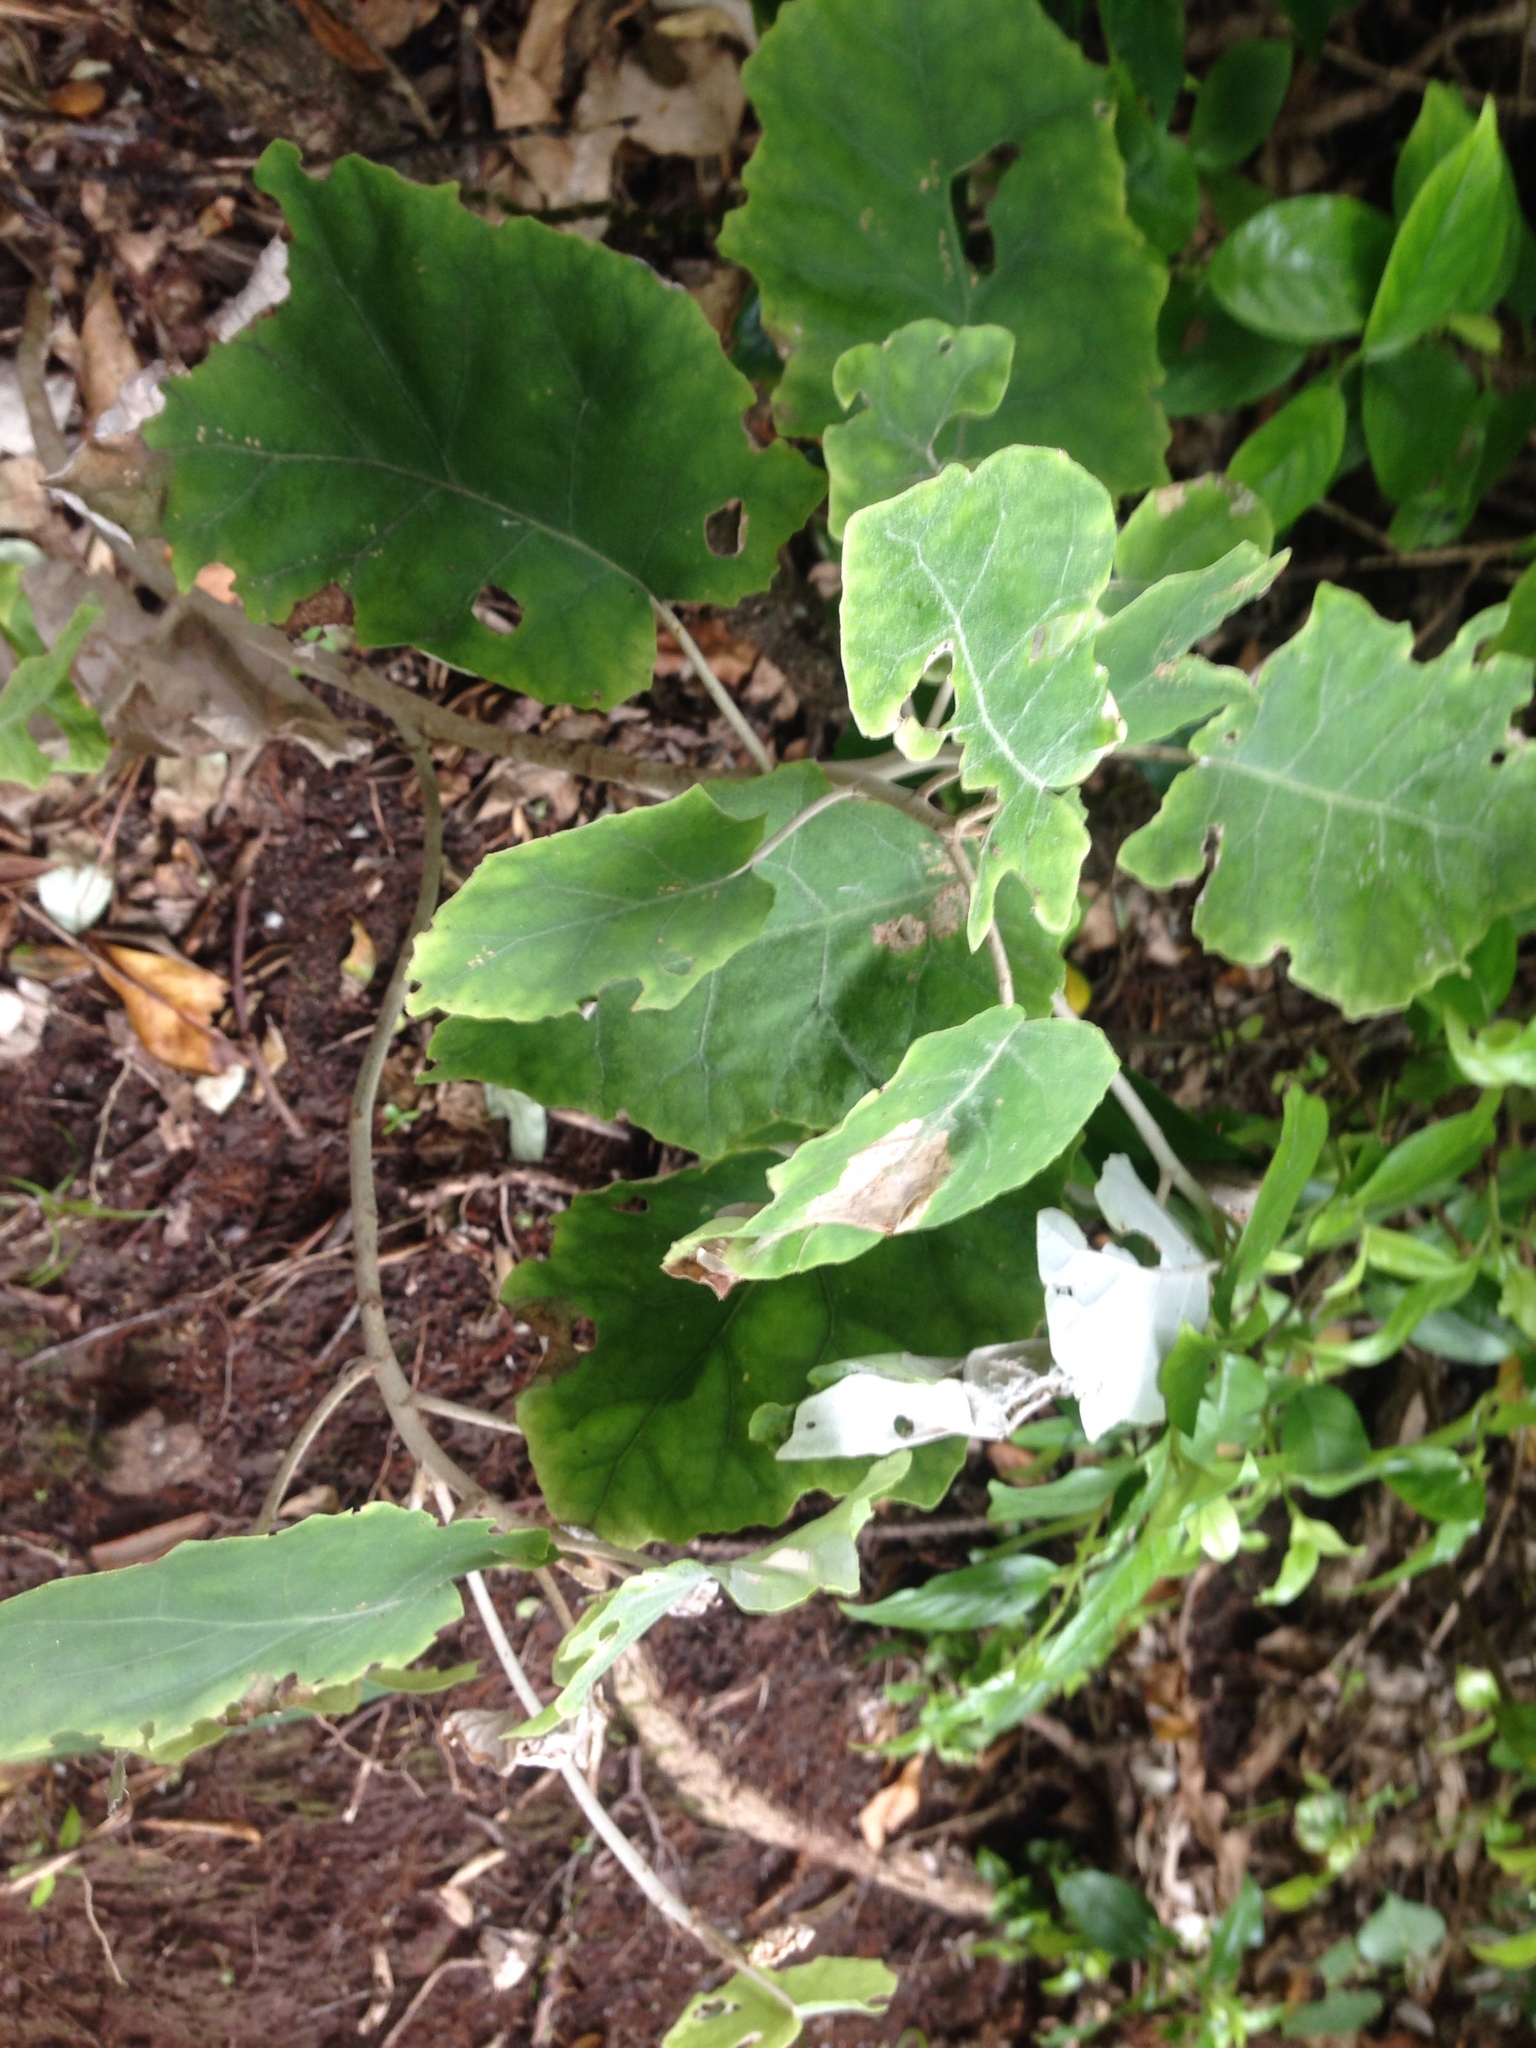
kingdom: Plantae
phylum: Tracheophyta
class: Magnoliopsida
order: Asterales
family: Asteraceae
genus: Brachyglottis
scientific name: Brachyglottis repanda
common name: Hedge ragwort
